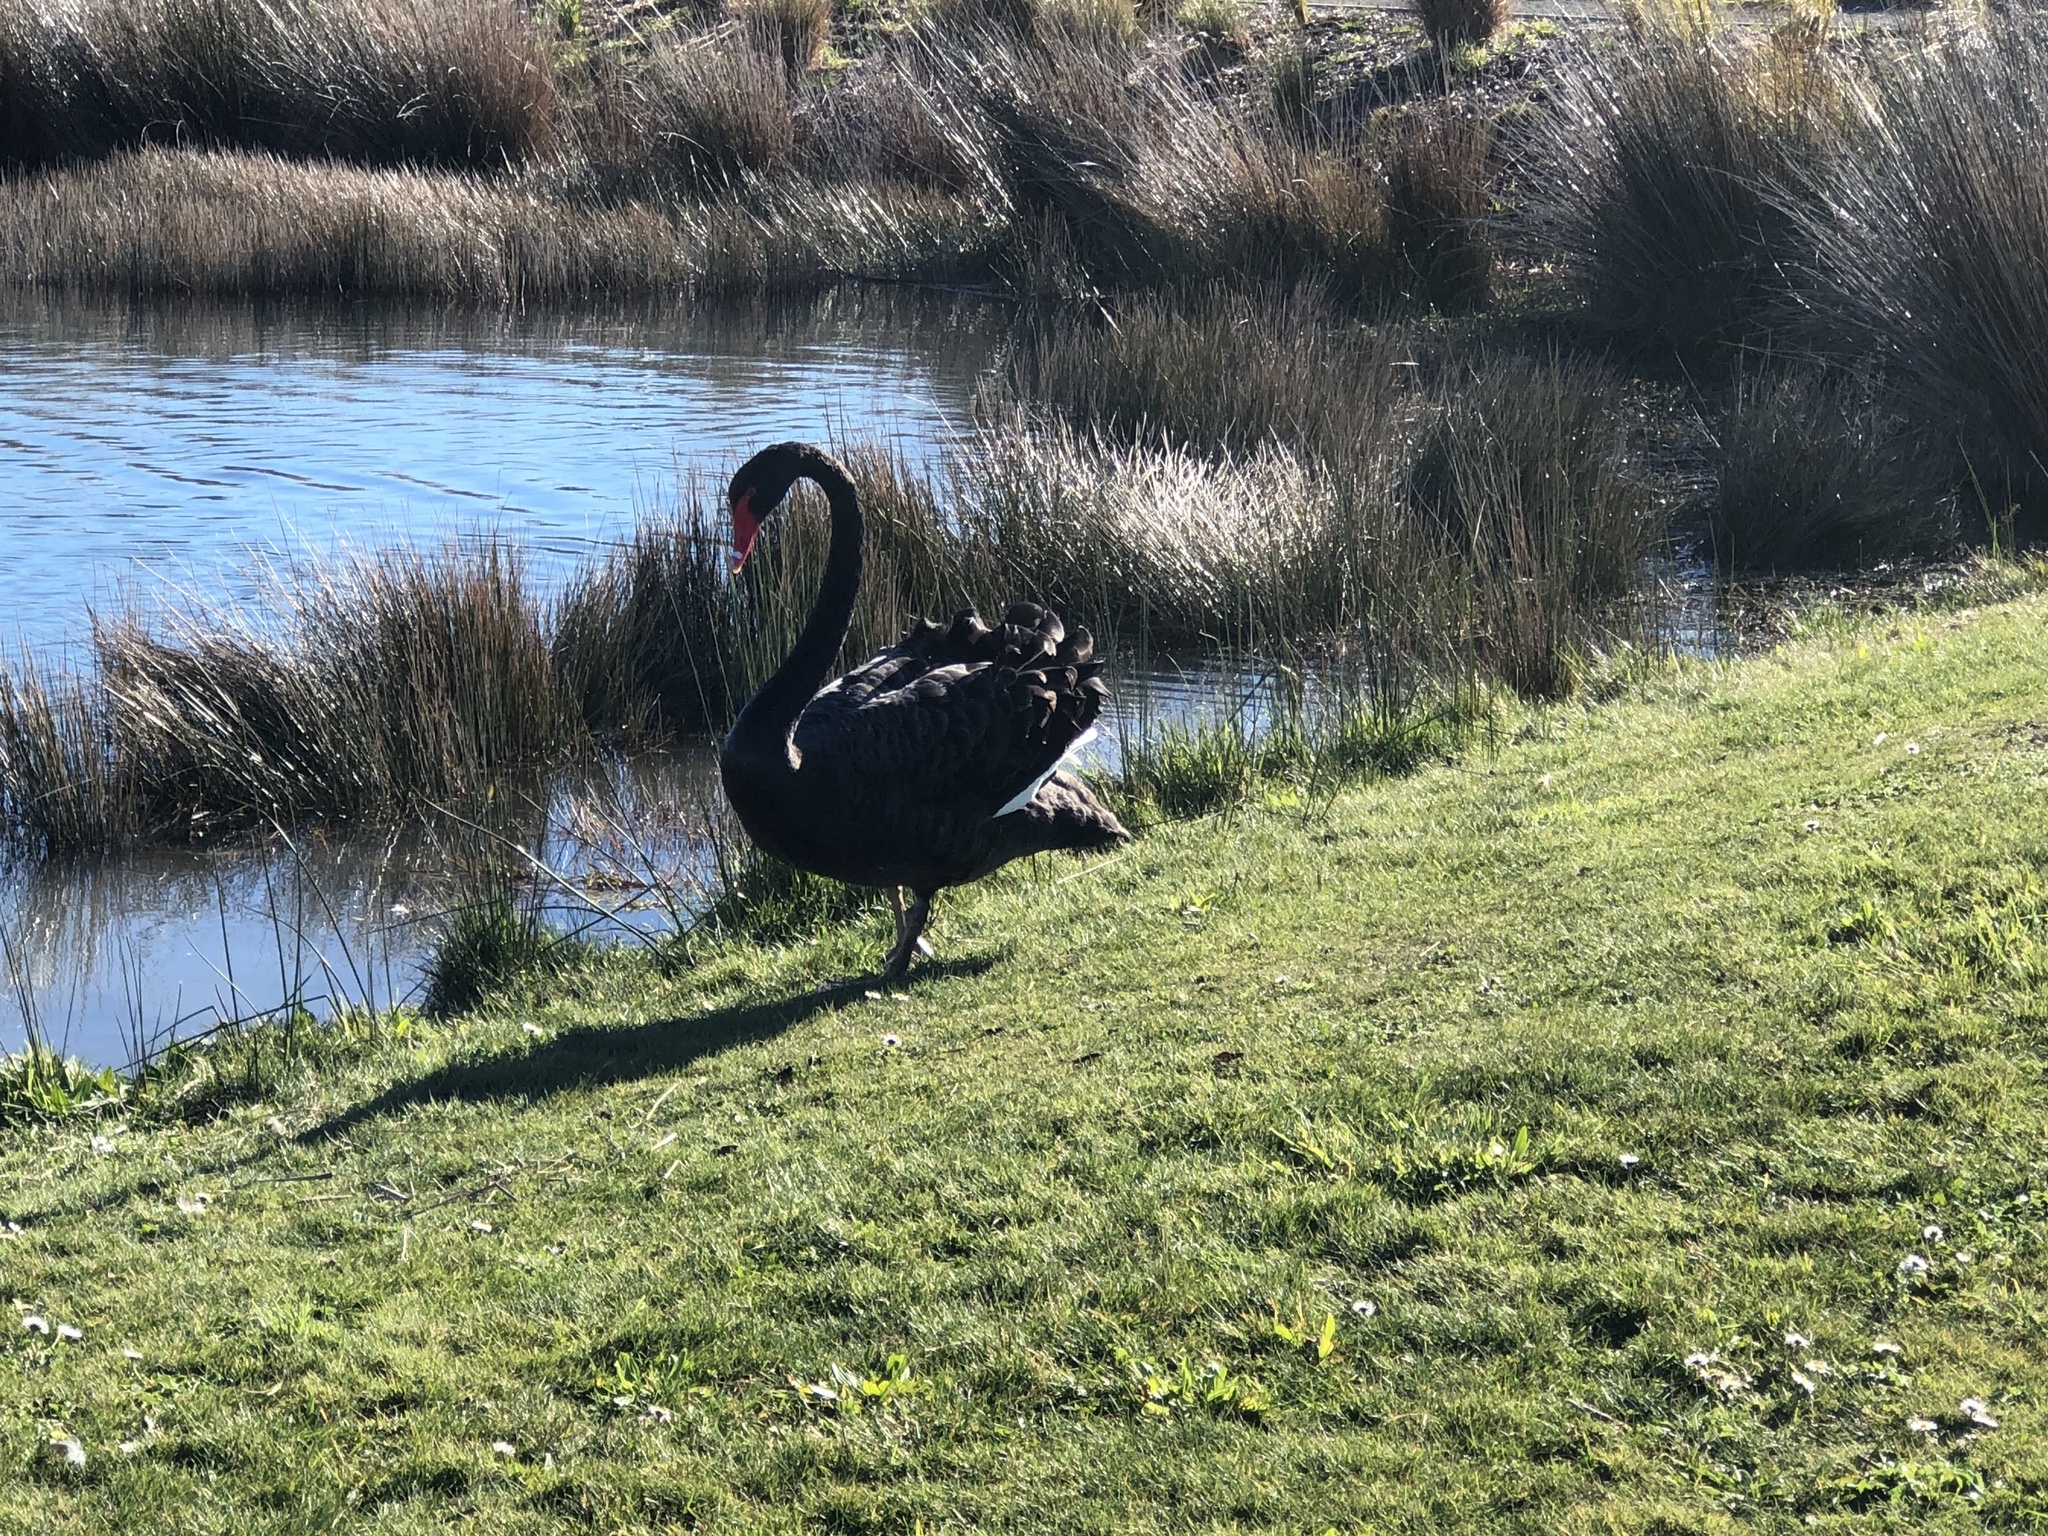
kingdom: Animalia
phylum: Chordata
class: Aves
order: Anseriformes
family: Anatidae
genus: Cygnus
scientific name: Cygnus atratus
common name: Black swan
